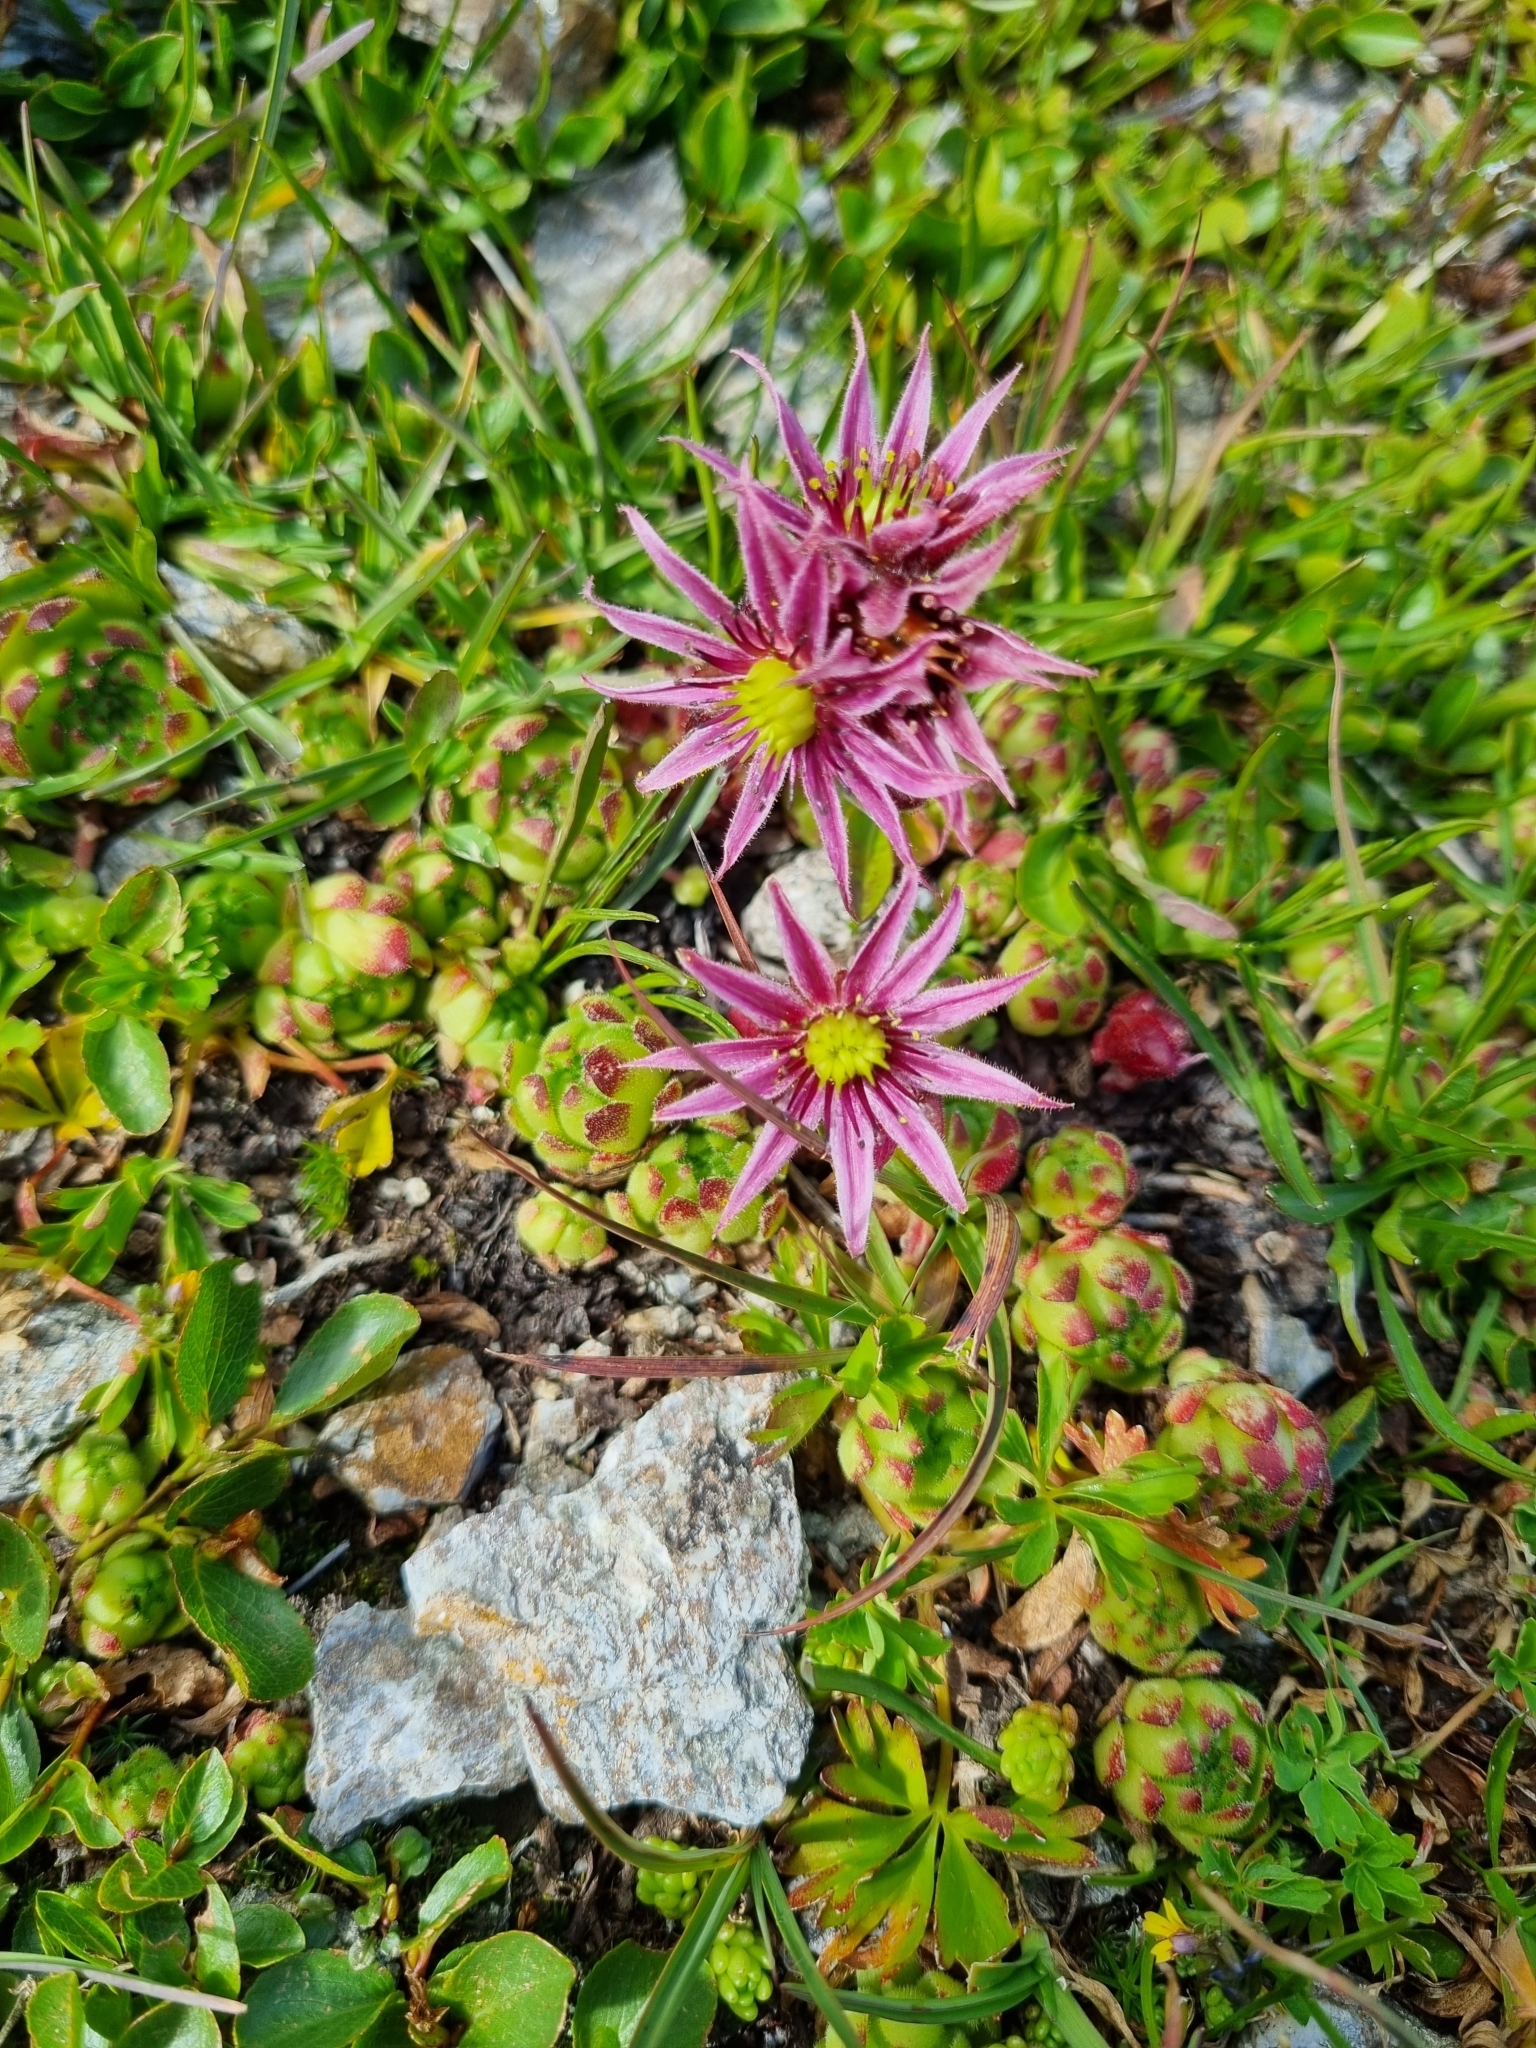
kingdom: Plantae
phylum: Tracheophyta
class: Magnoliopsida
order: Saxifragales
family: Crassulaceae
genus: Sempervivum
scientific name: Sempervivum montanum
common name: Mountain house-leek
